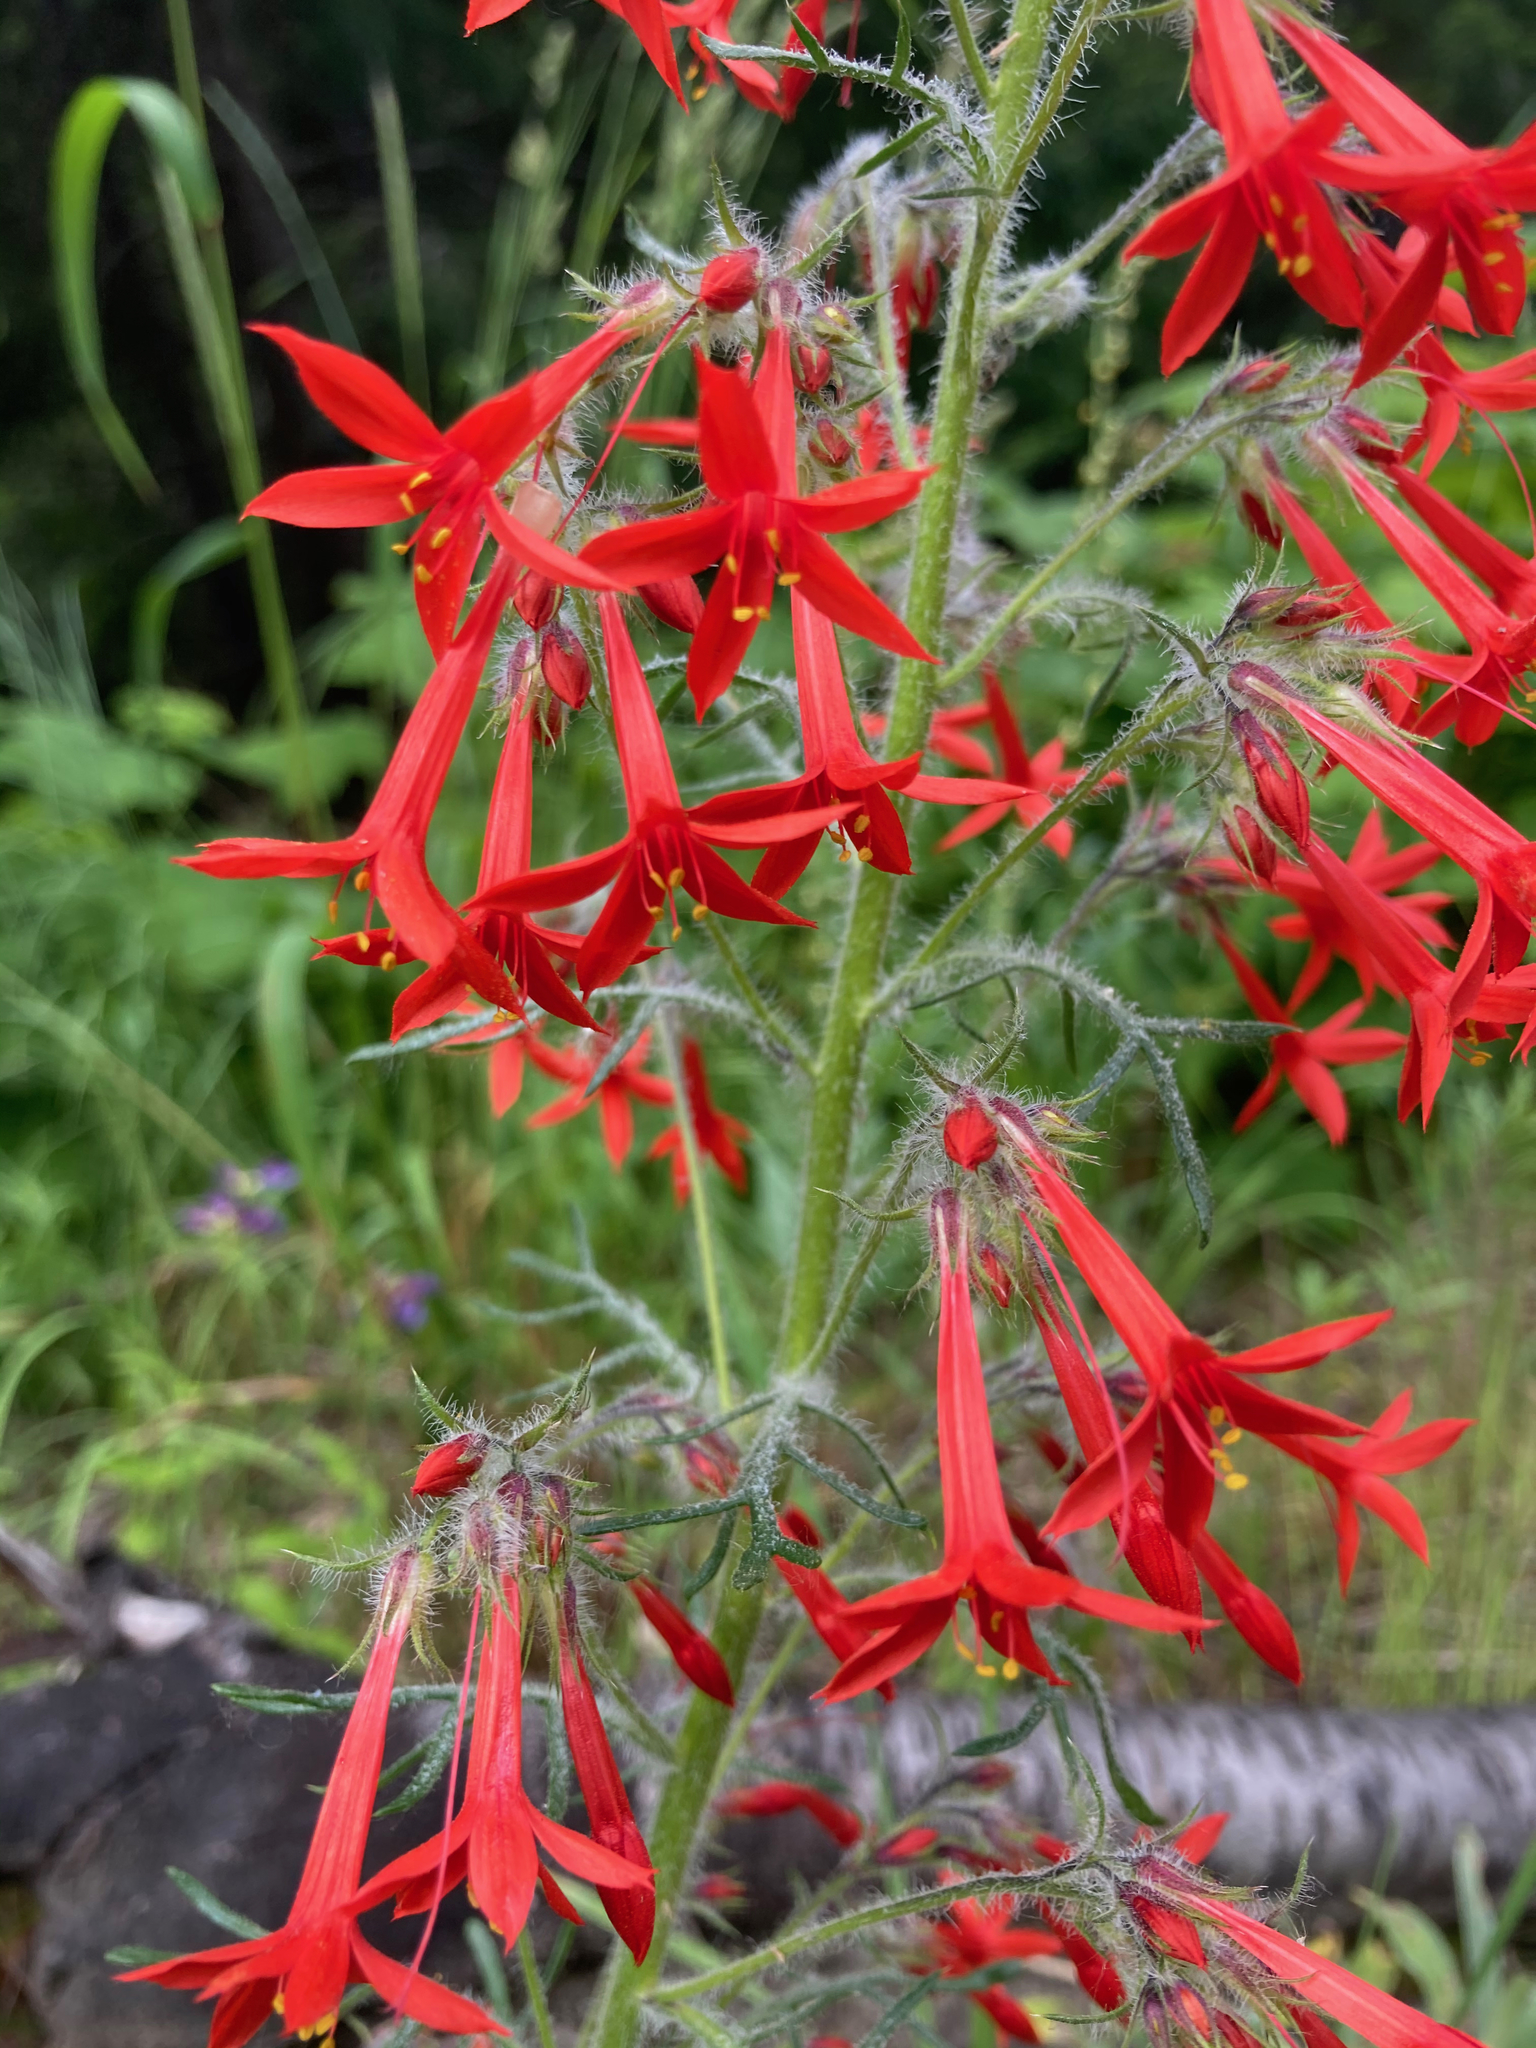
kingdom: Plantae
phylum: Tracheophyta
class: Magnoliopsida
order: Ericales
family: Polemoniaceae
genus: Ipomopsis
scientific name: Ipomopsis aggregata
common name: Scarlet gilia
